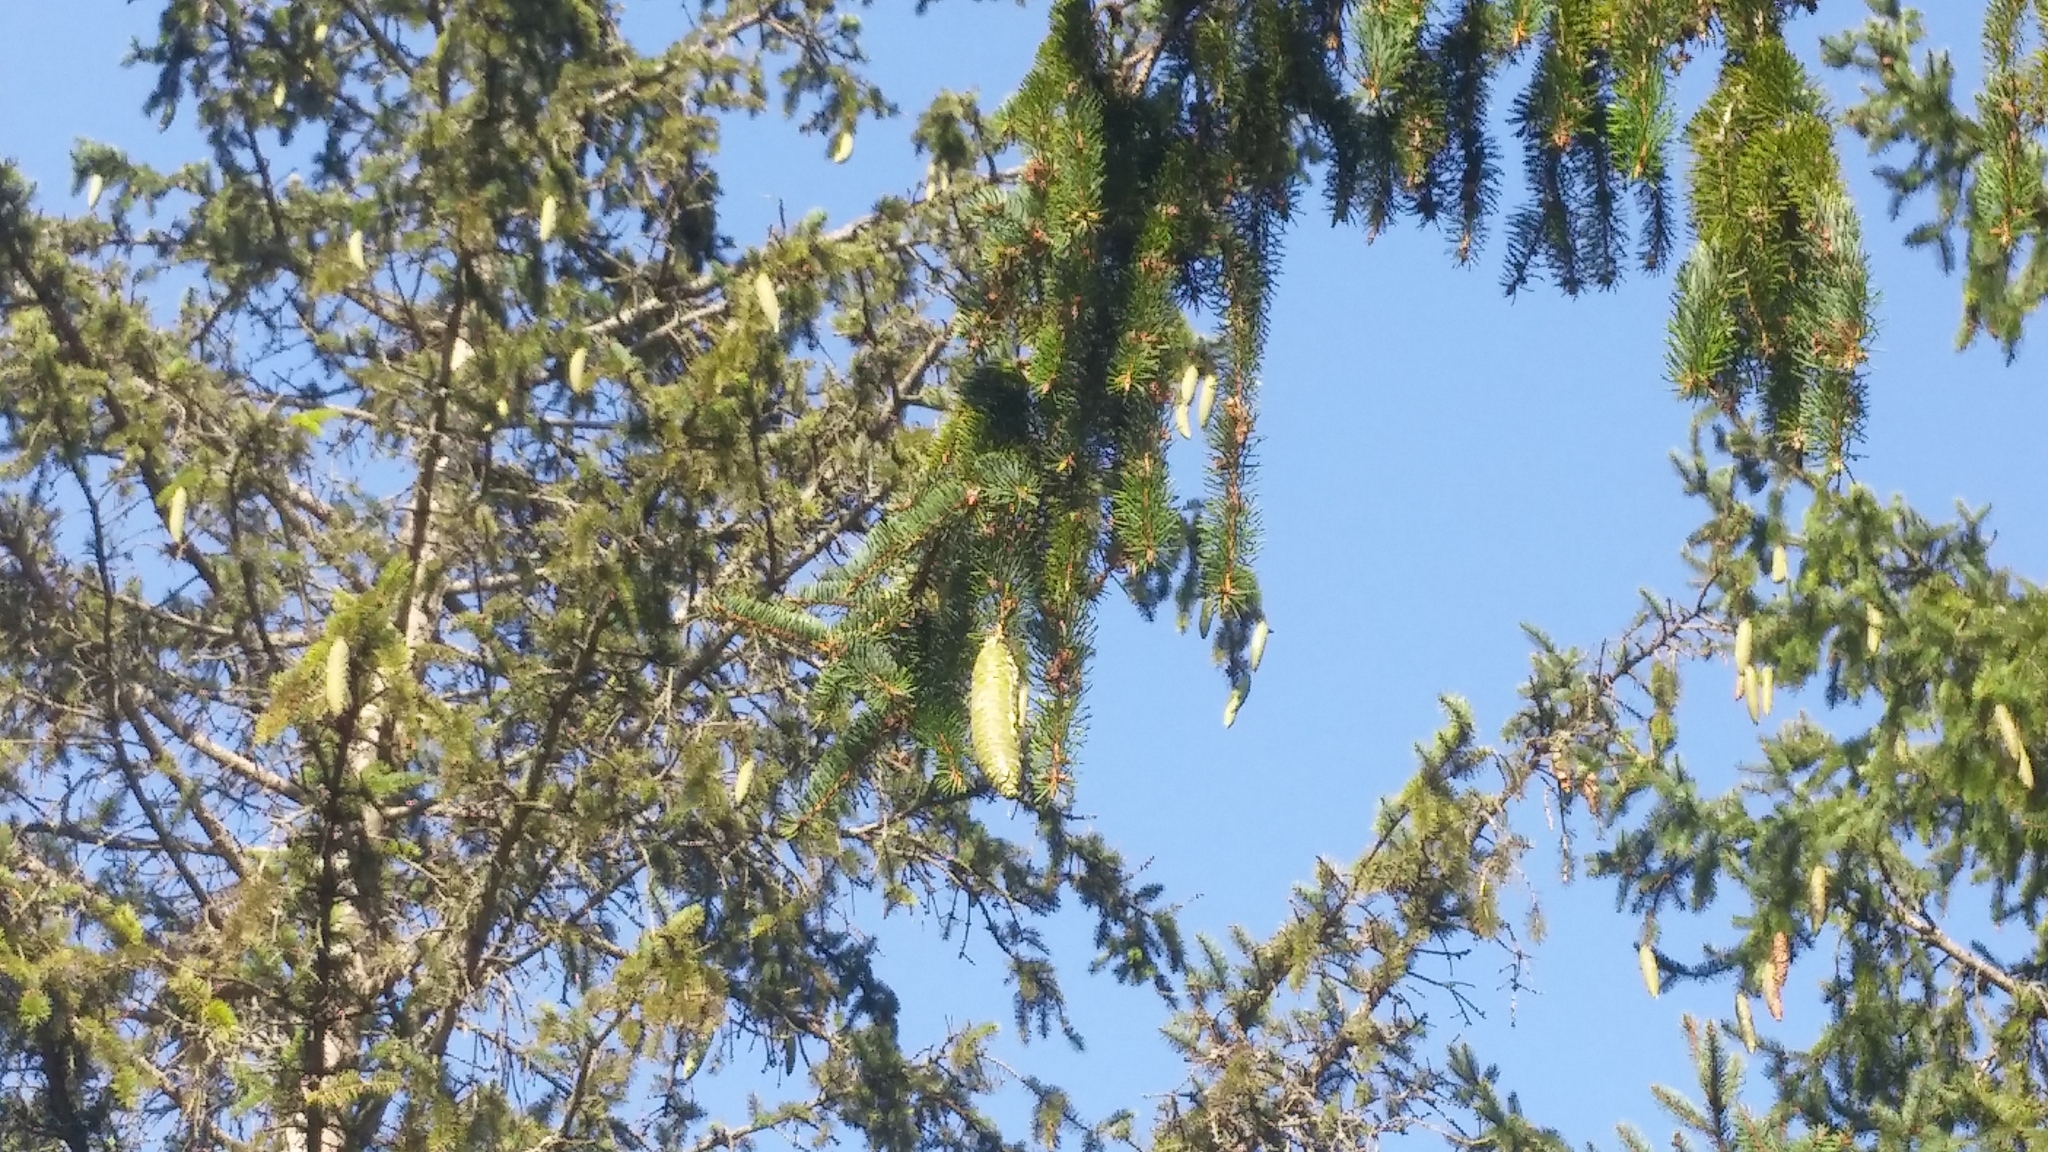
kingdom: Plantae
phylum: Tracheophyta
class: Pinopsida
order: Pinales
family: Pinaceae
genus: Picea
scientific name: Picea abies
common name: Norway spruce
